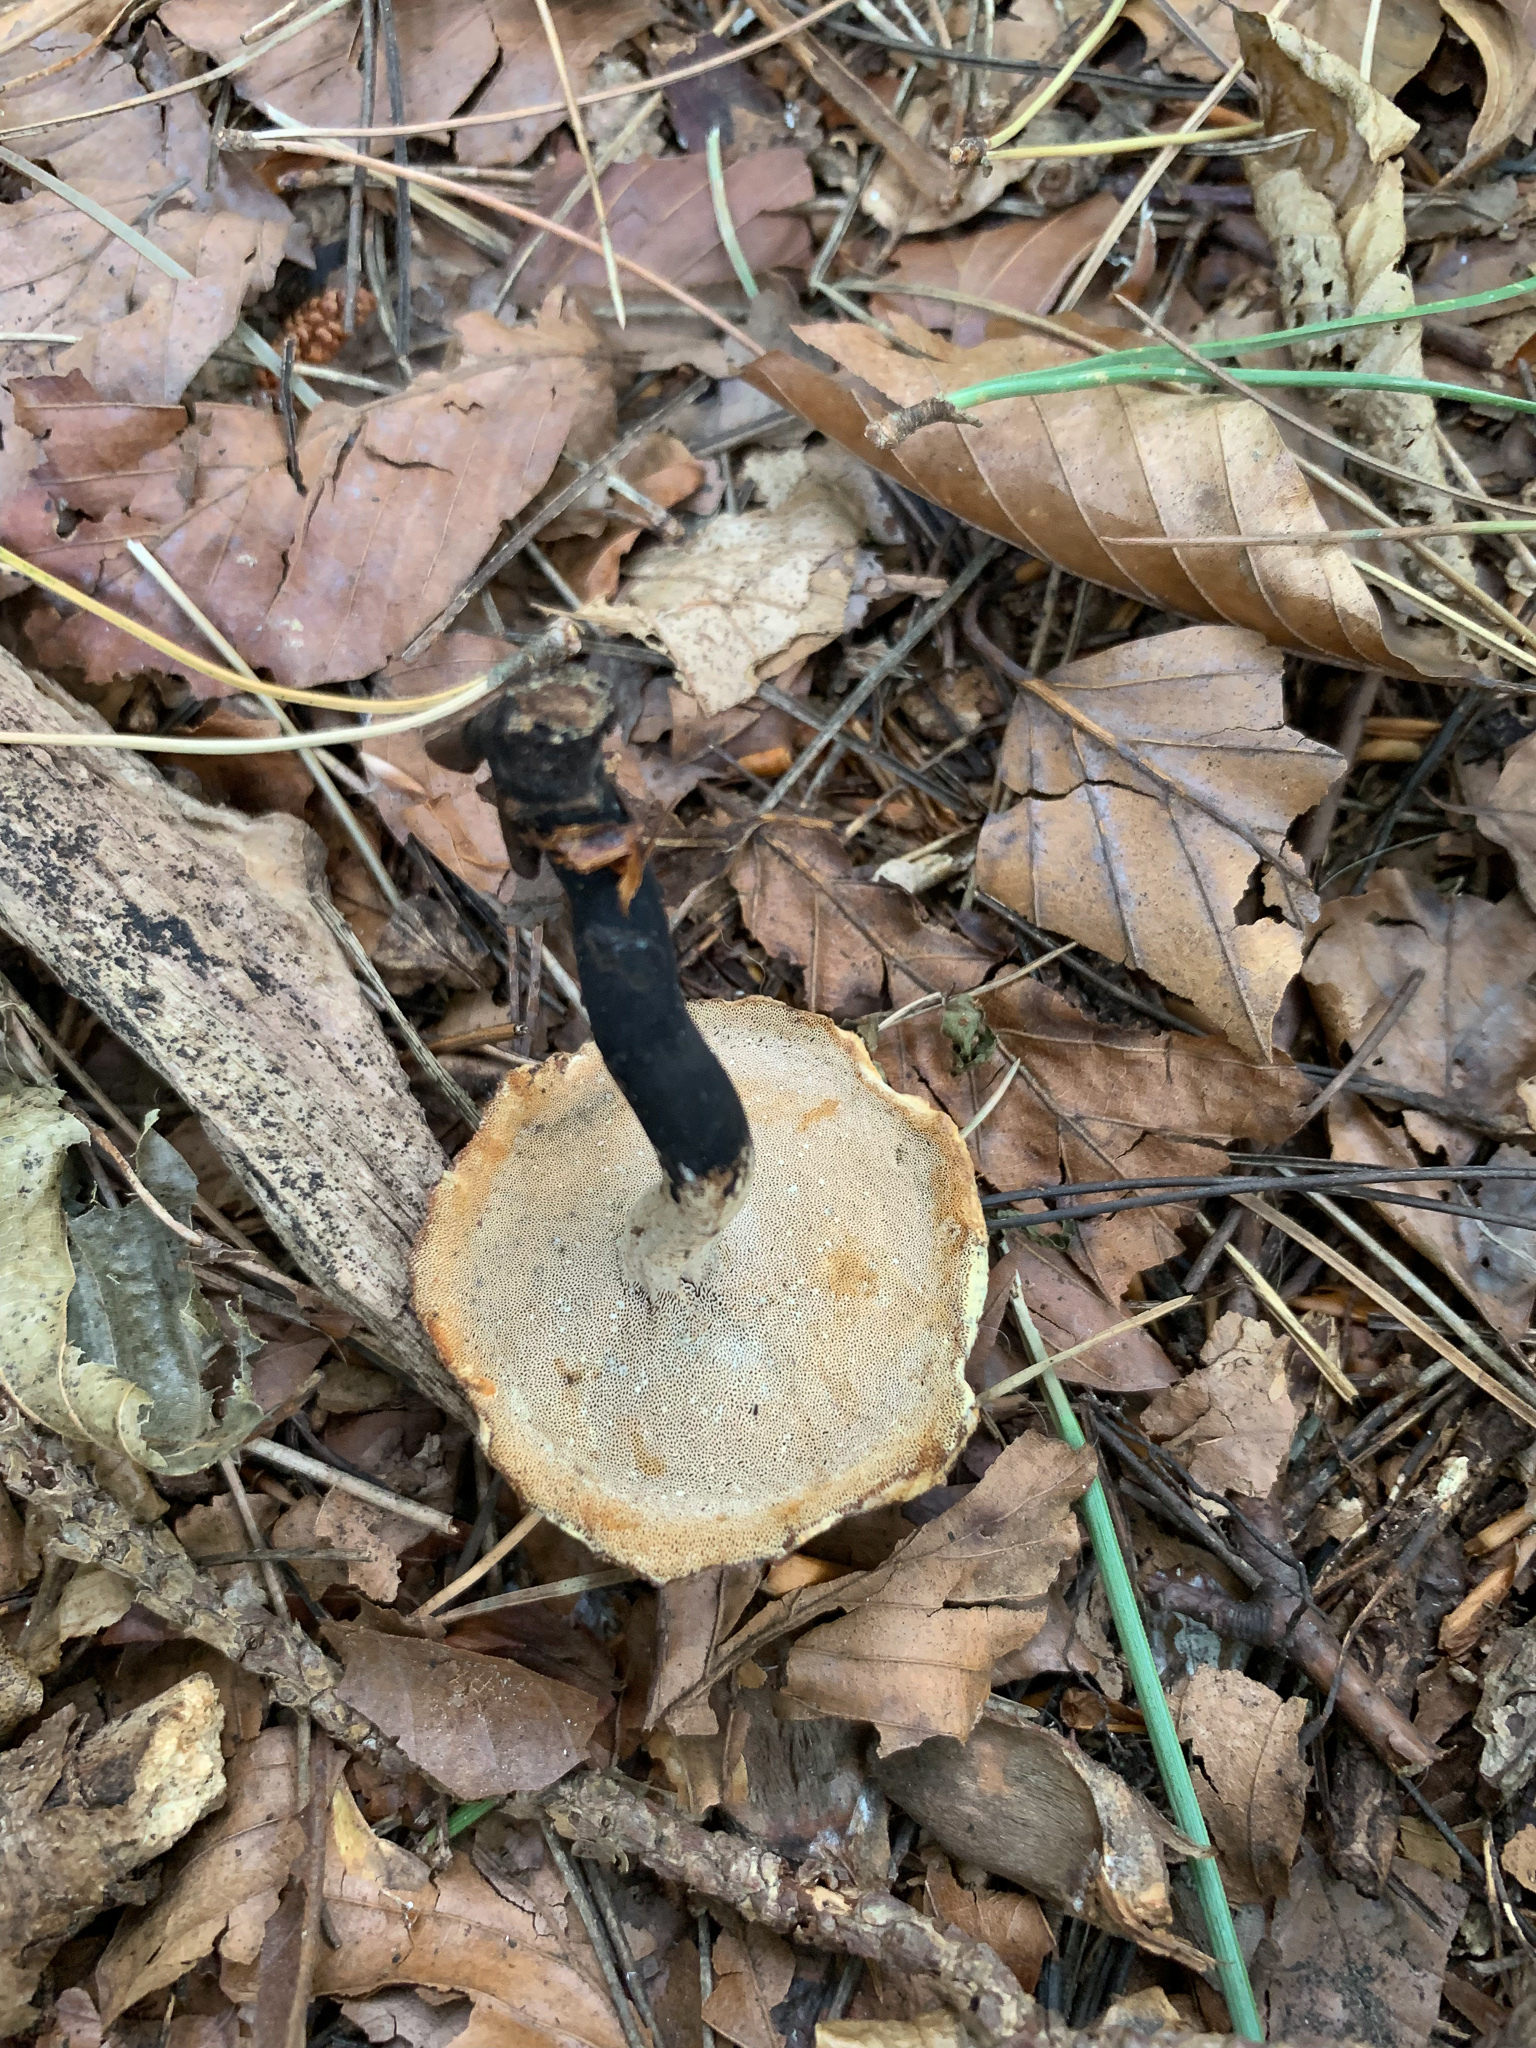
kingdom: Fungi
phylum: Basidiomycota
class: Agaricomycetes
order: Polyporales
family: Polyporaceae
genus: Cerioporus
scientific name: Cerioporus leptocephalus
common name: Blackfoot polypore
